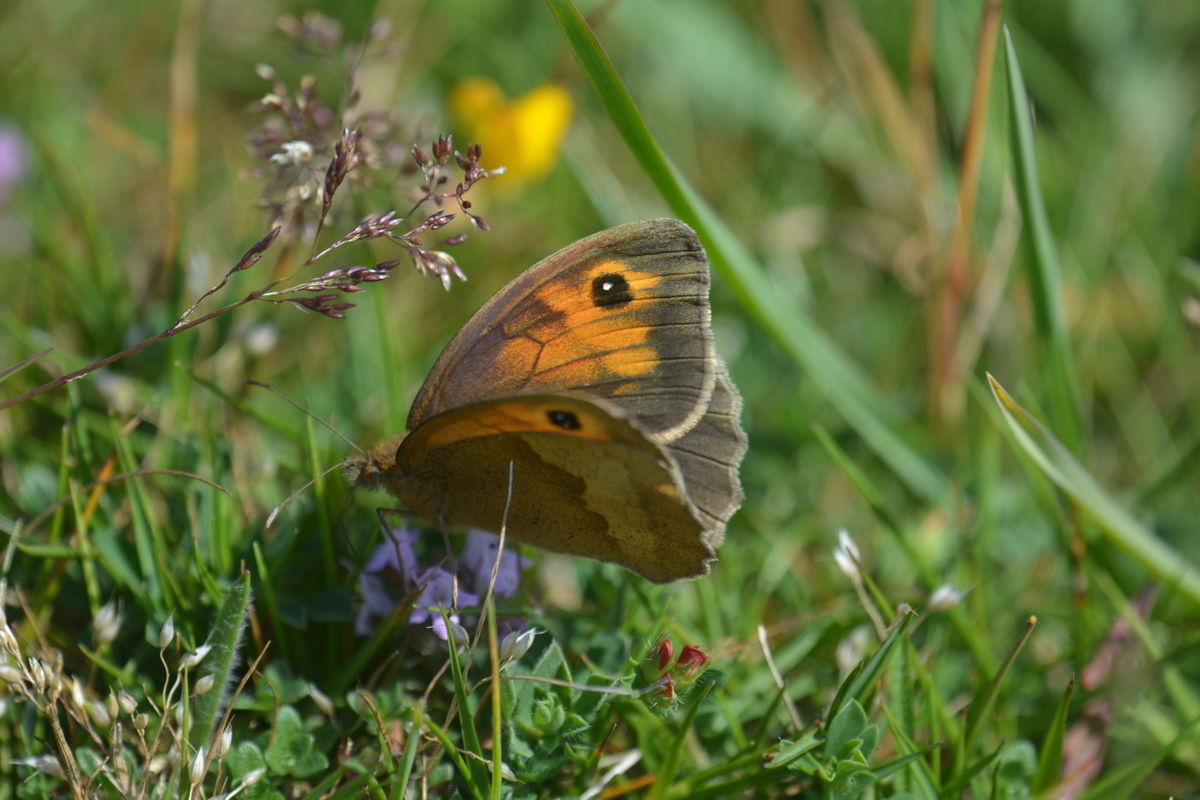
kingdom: Animalia
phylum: Arthropoda
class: Insecta
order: Lepidoptera
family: Nymphalidae
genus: Maniola
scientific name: Maniola jurtina
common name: Meadow brown
